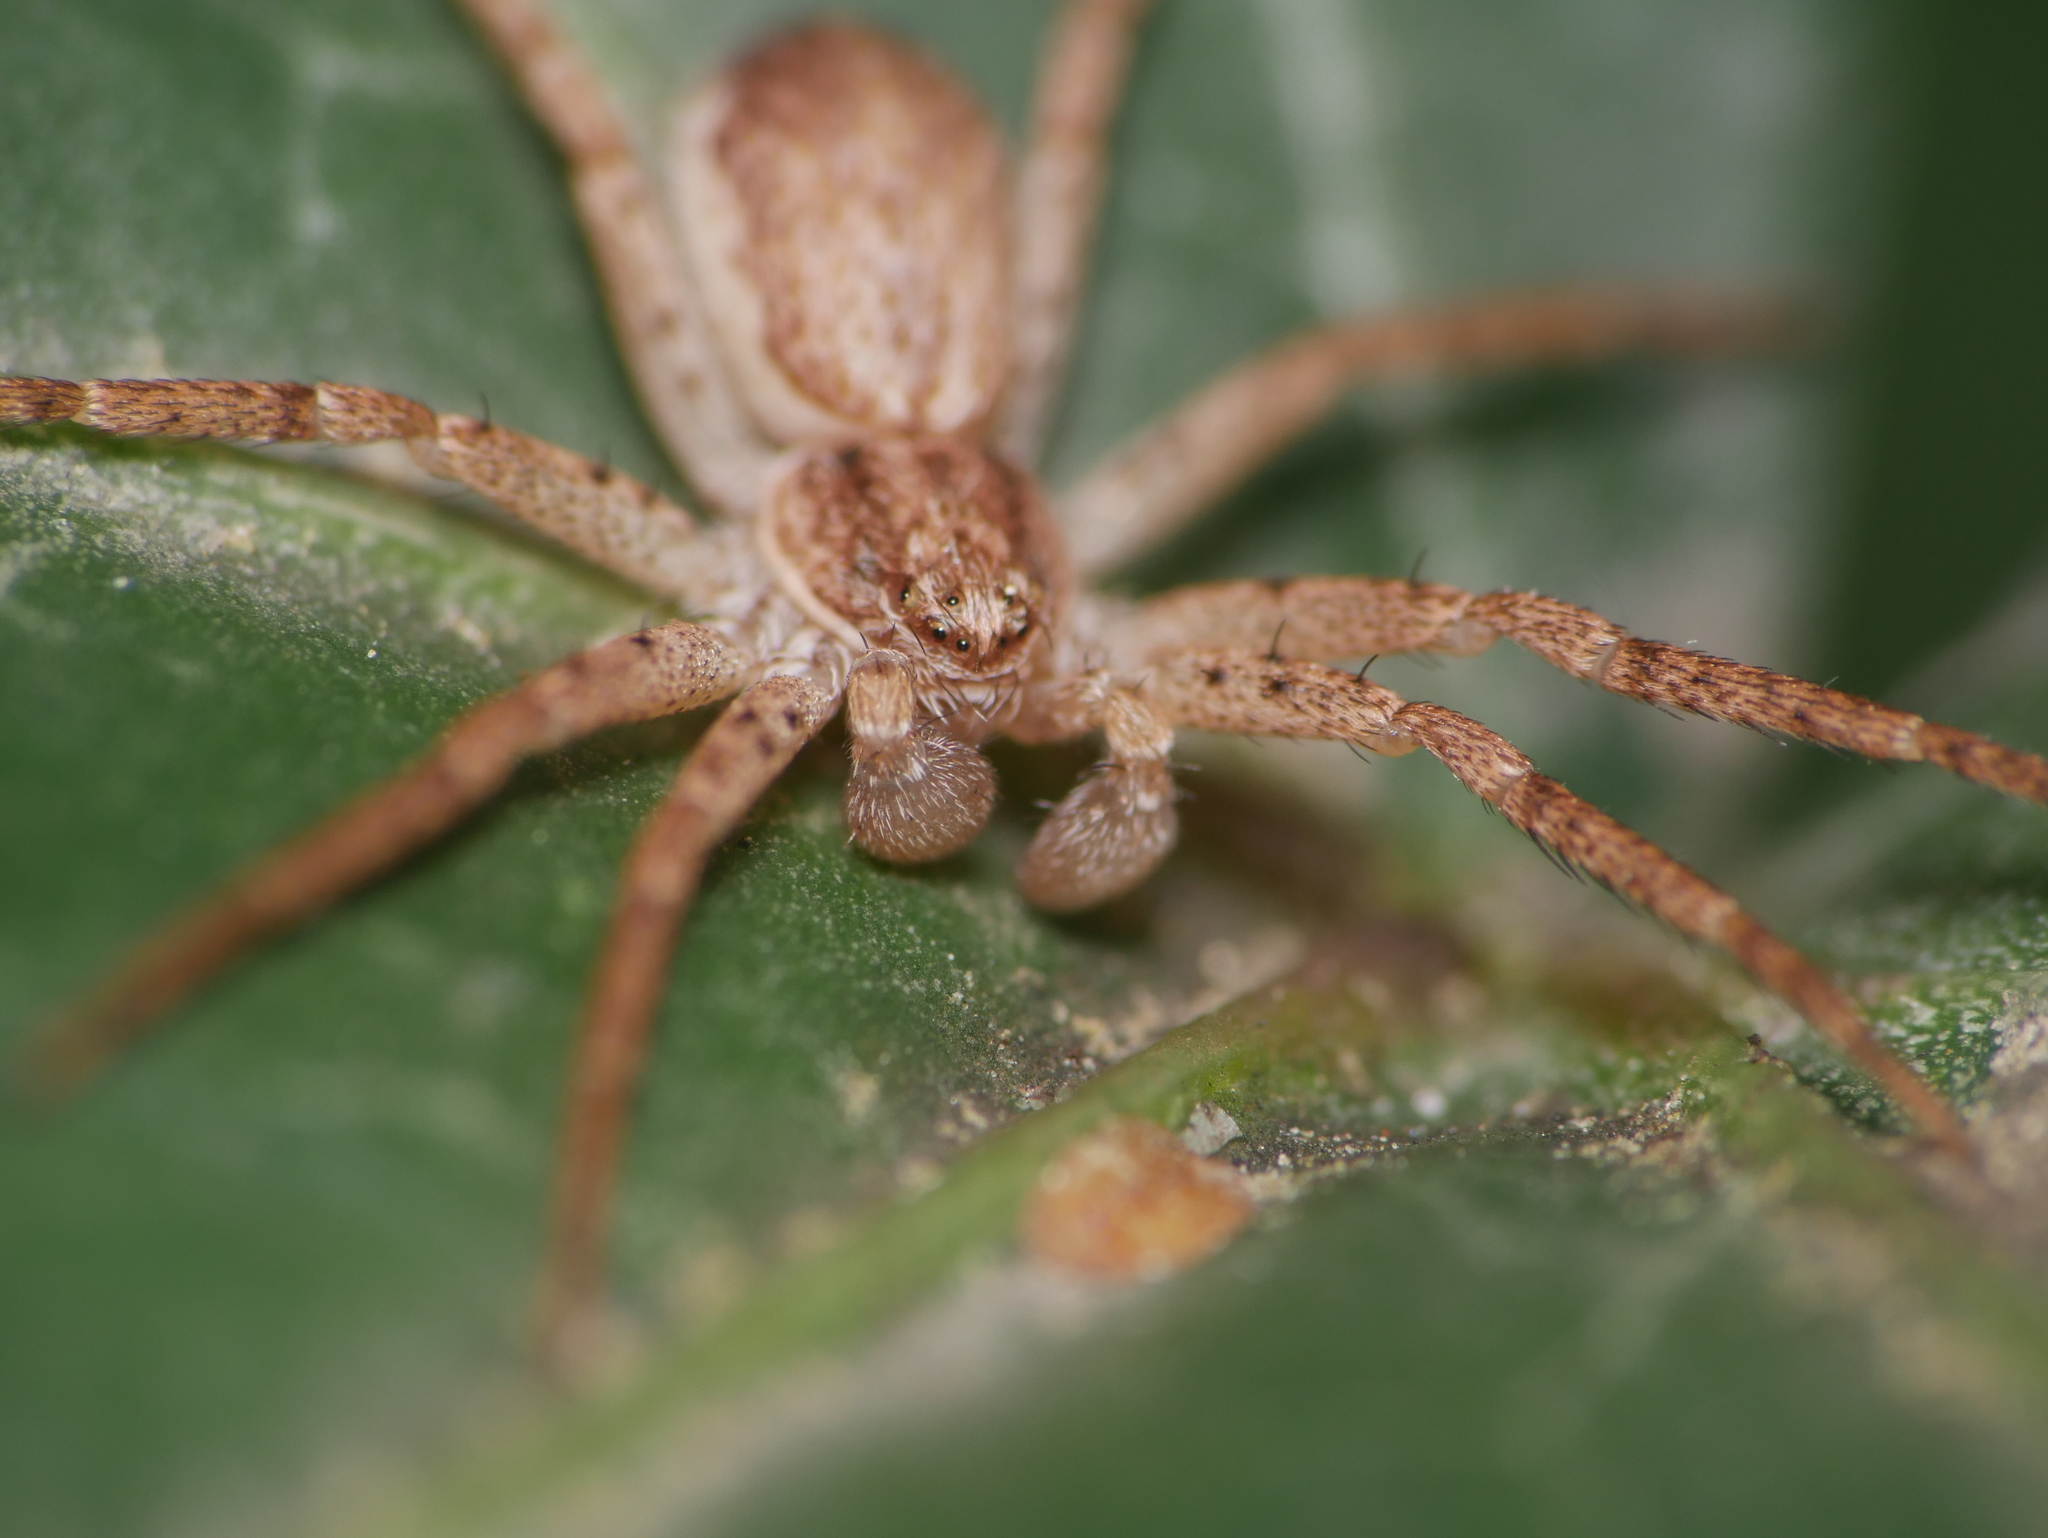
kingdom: Animalia
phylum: Arthropoda
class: Arachnida
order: Araneae
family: Philodromidae
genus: Philodromus
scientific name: Philodromus dispar
